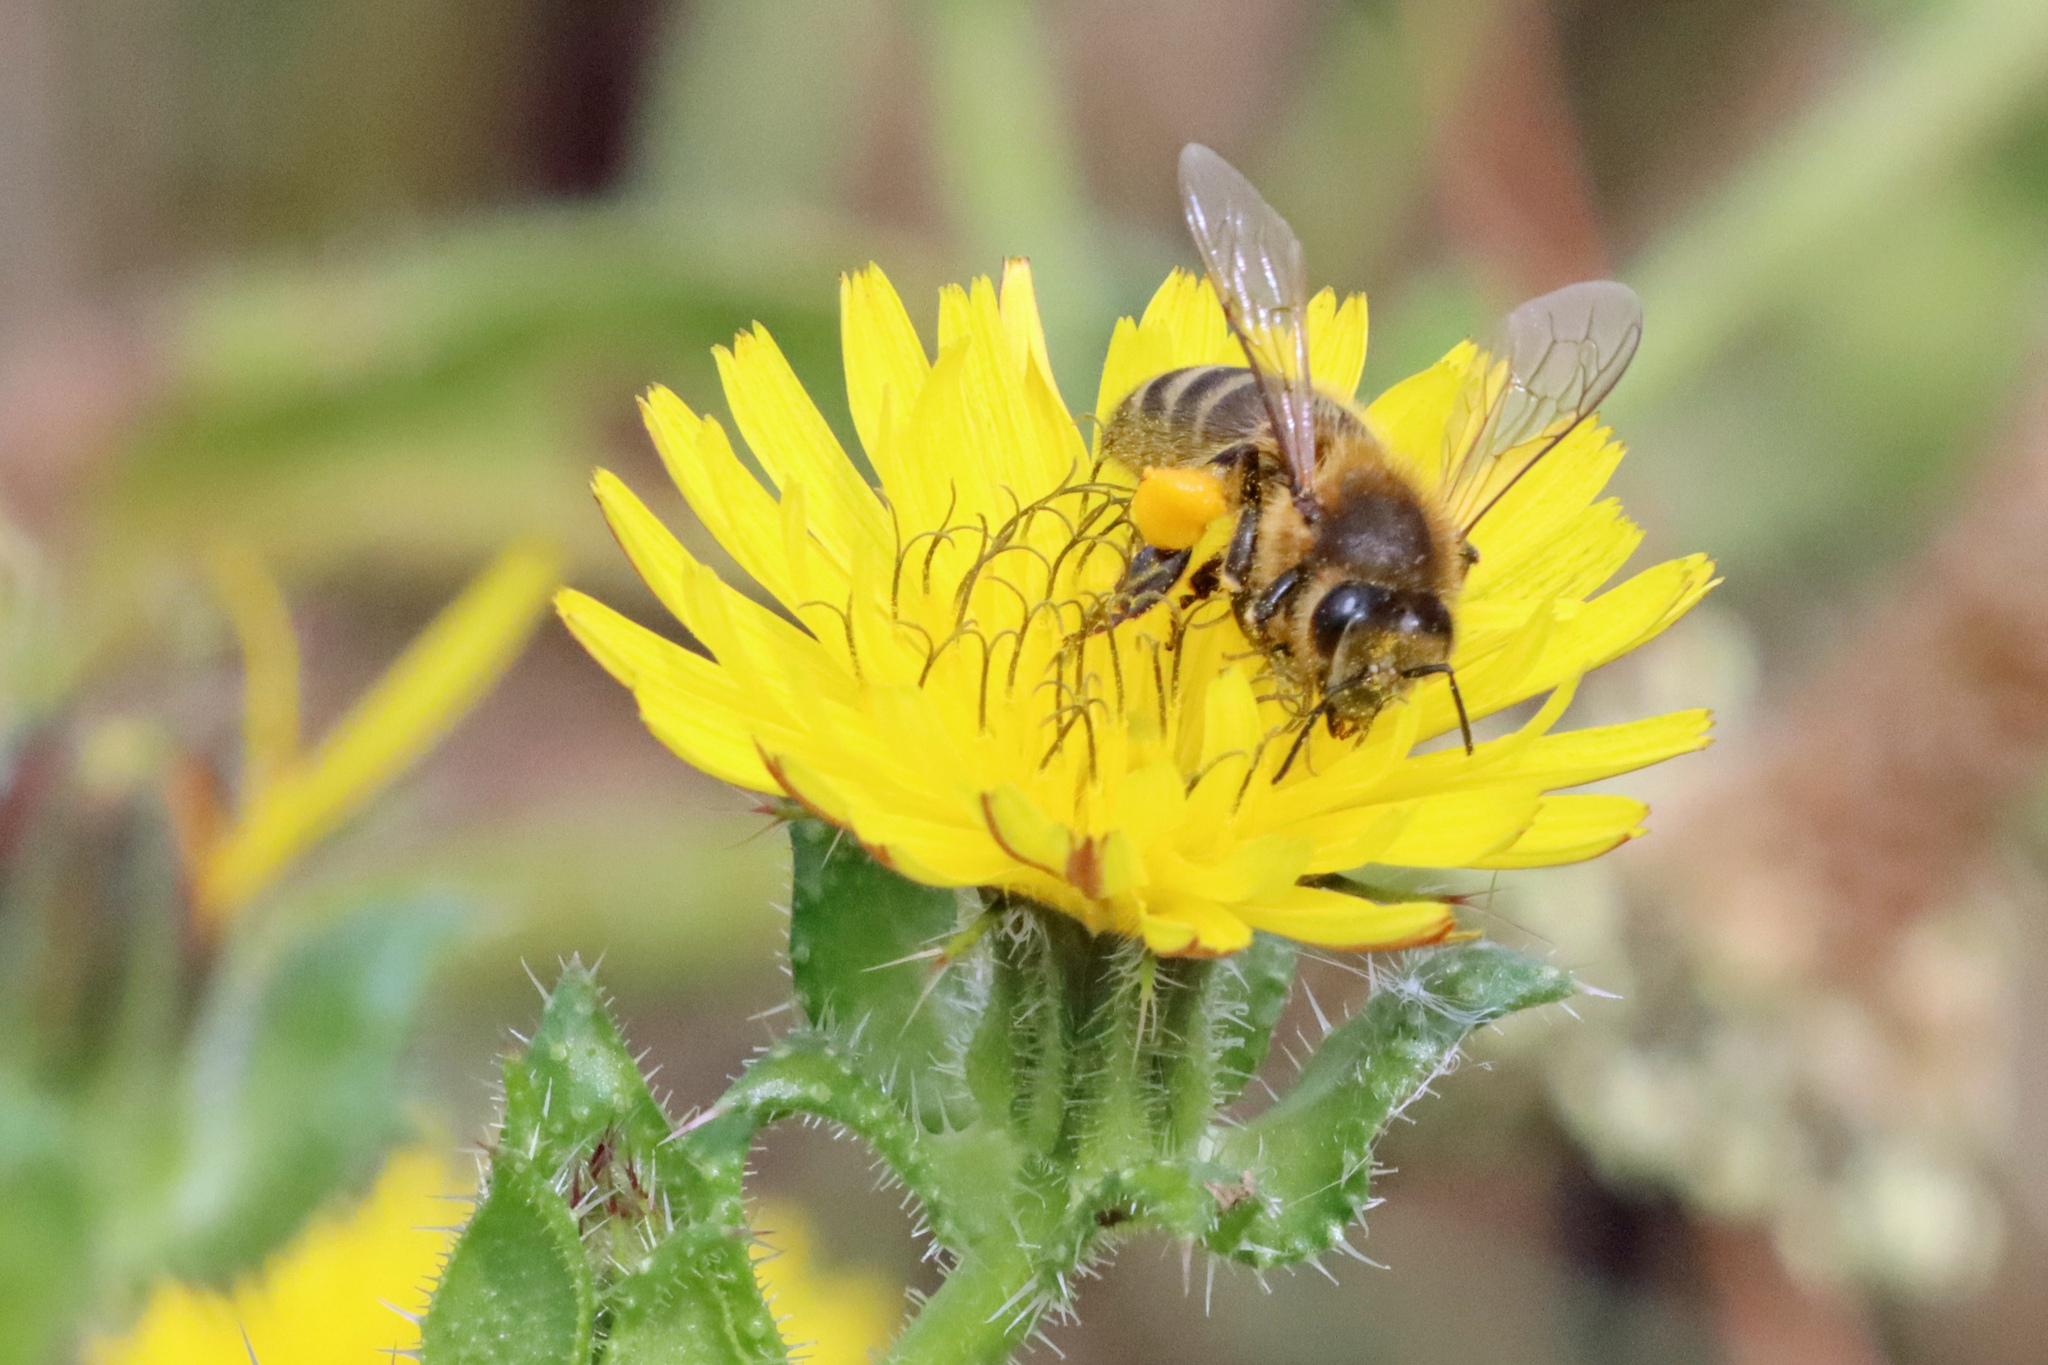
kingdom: Animalia
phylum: Arthropoda
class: Insecta
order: Hymenoptera
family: Apidae
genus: Apis
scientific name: Apis mellifera
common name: Honey bee
